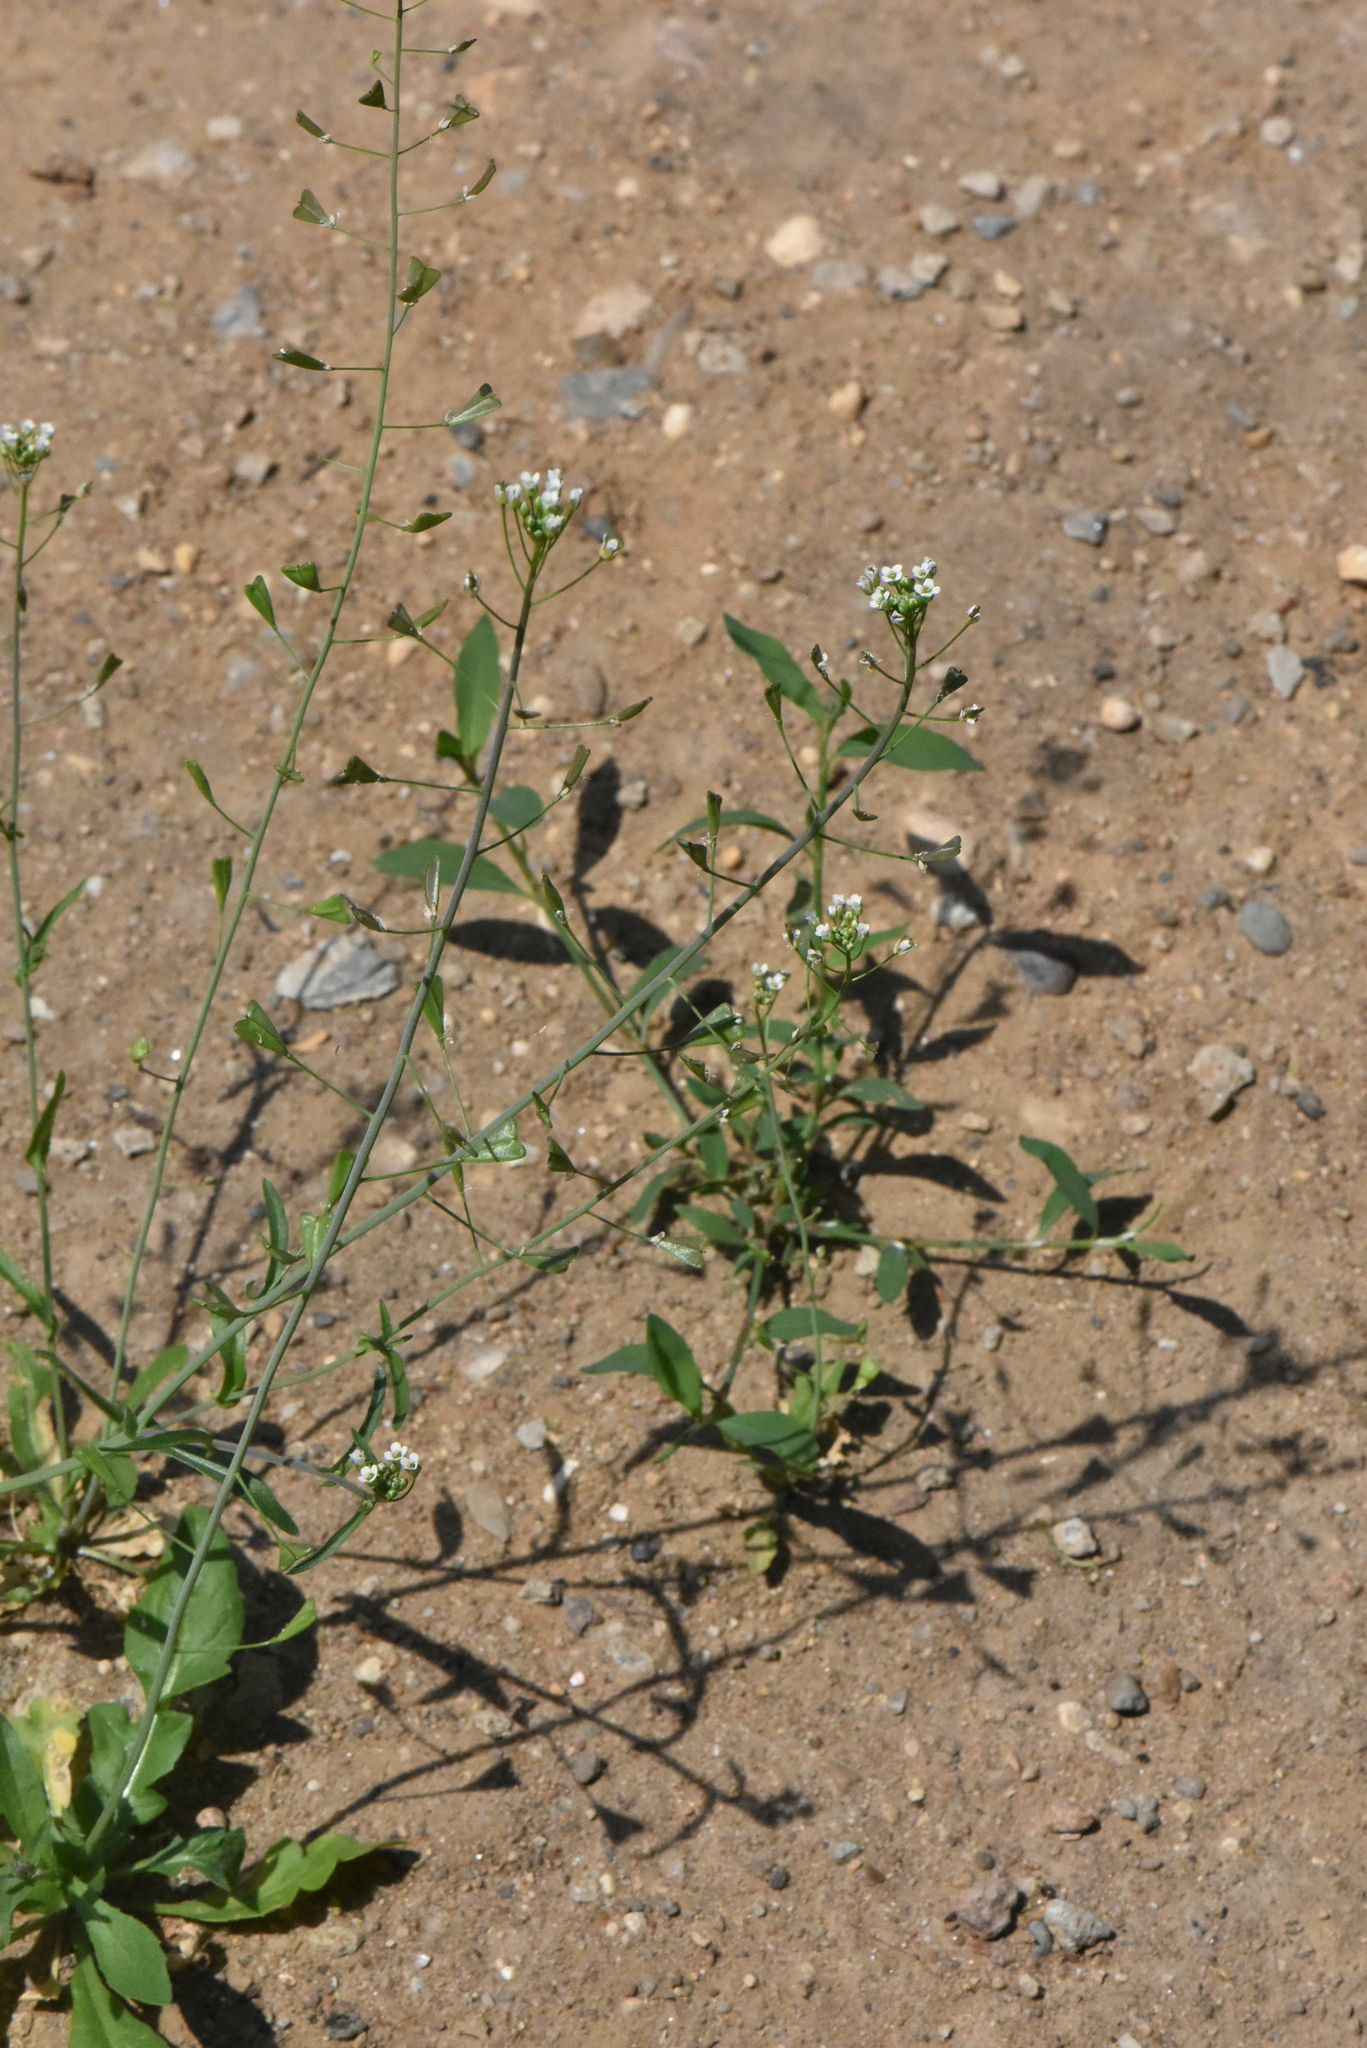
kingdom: Plantae
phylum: Tracheophyta
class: Magnoliopsida
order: Brassicales
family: Brassicaceae
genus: Capsella
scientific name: Capsella bursa-pastoris
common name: Shepherd's purse
